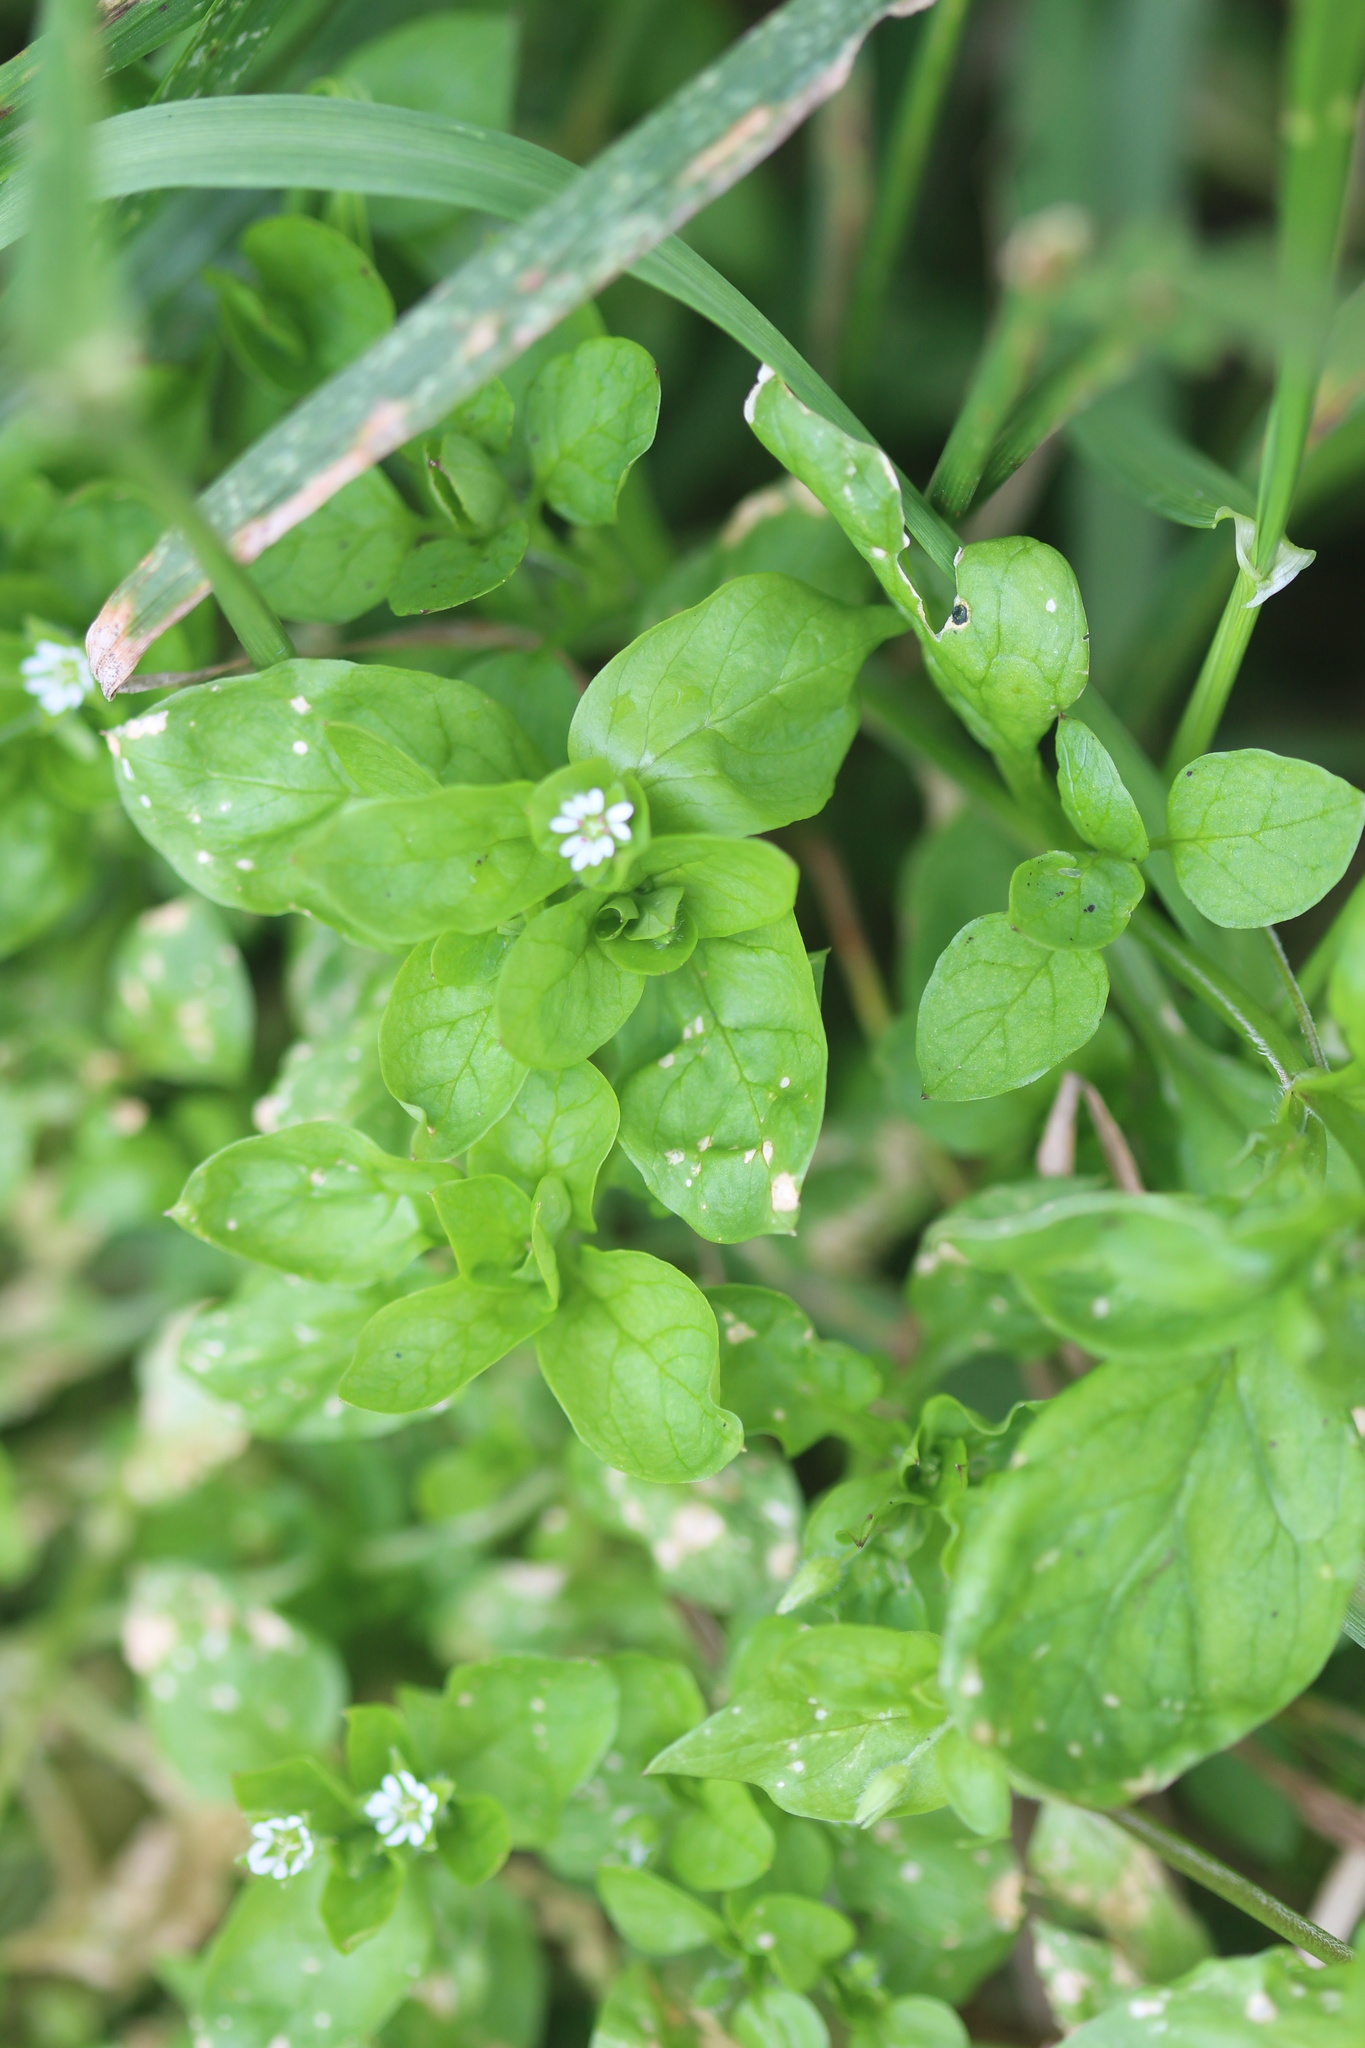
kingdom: Plantae
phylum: Tracheophyta
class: Magnoliopsida
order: Caryophyllales
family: Caryophyllaceae
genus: Stellaria
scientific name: Stellaria media
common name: Common chickweed
